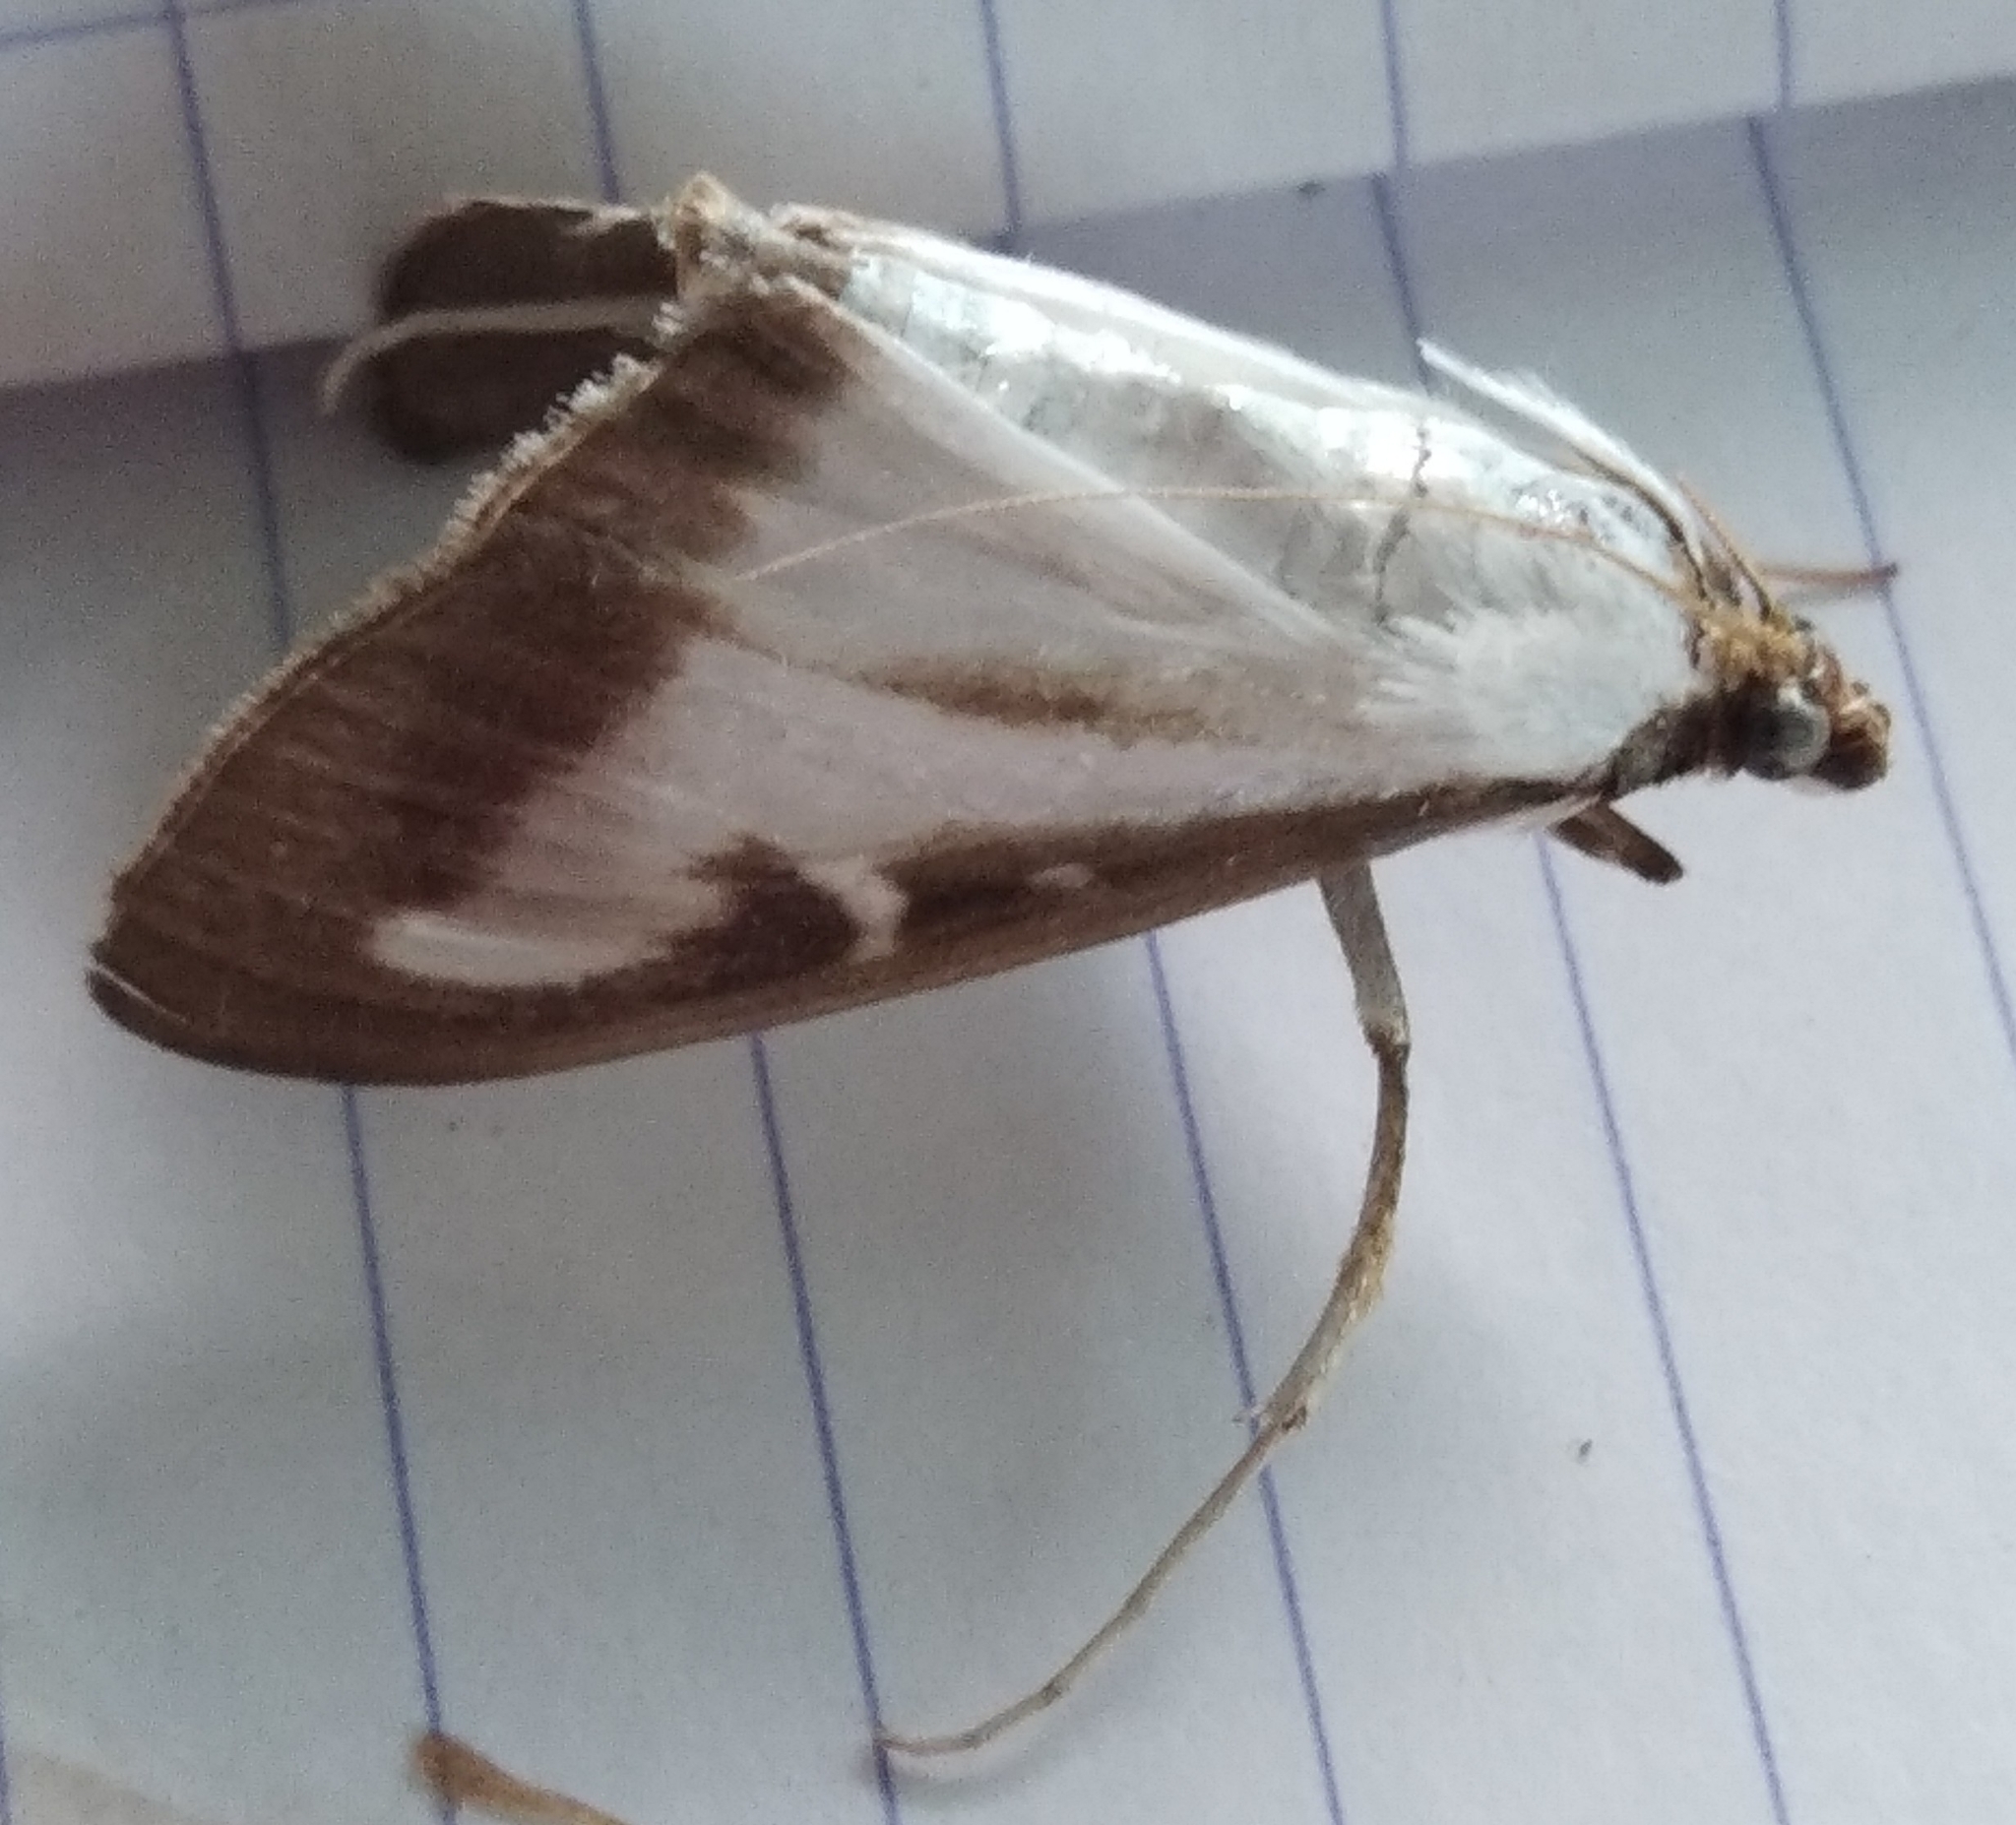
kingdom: Animalia
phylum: Arthropoda
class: Insecta
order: Lepidoptera
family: Crambidae
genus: Cydalima
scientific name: Cydalima perspectalis
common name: Box tree moth
